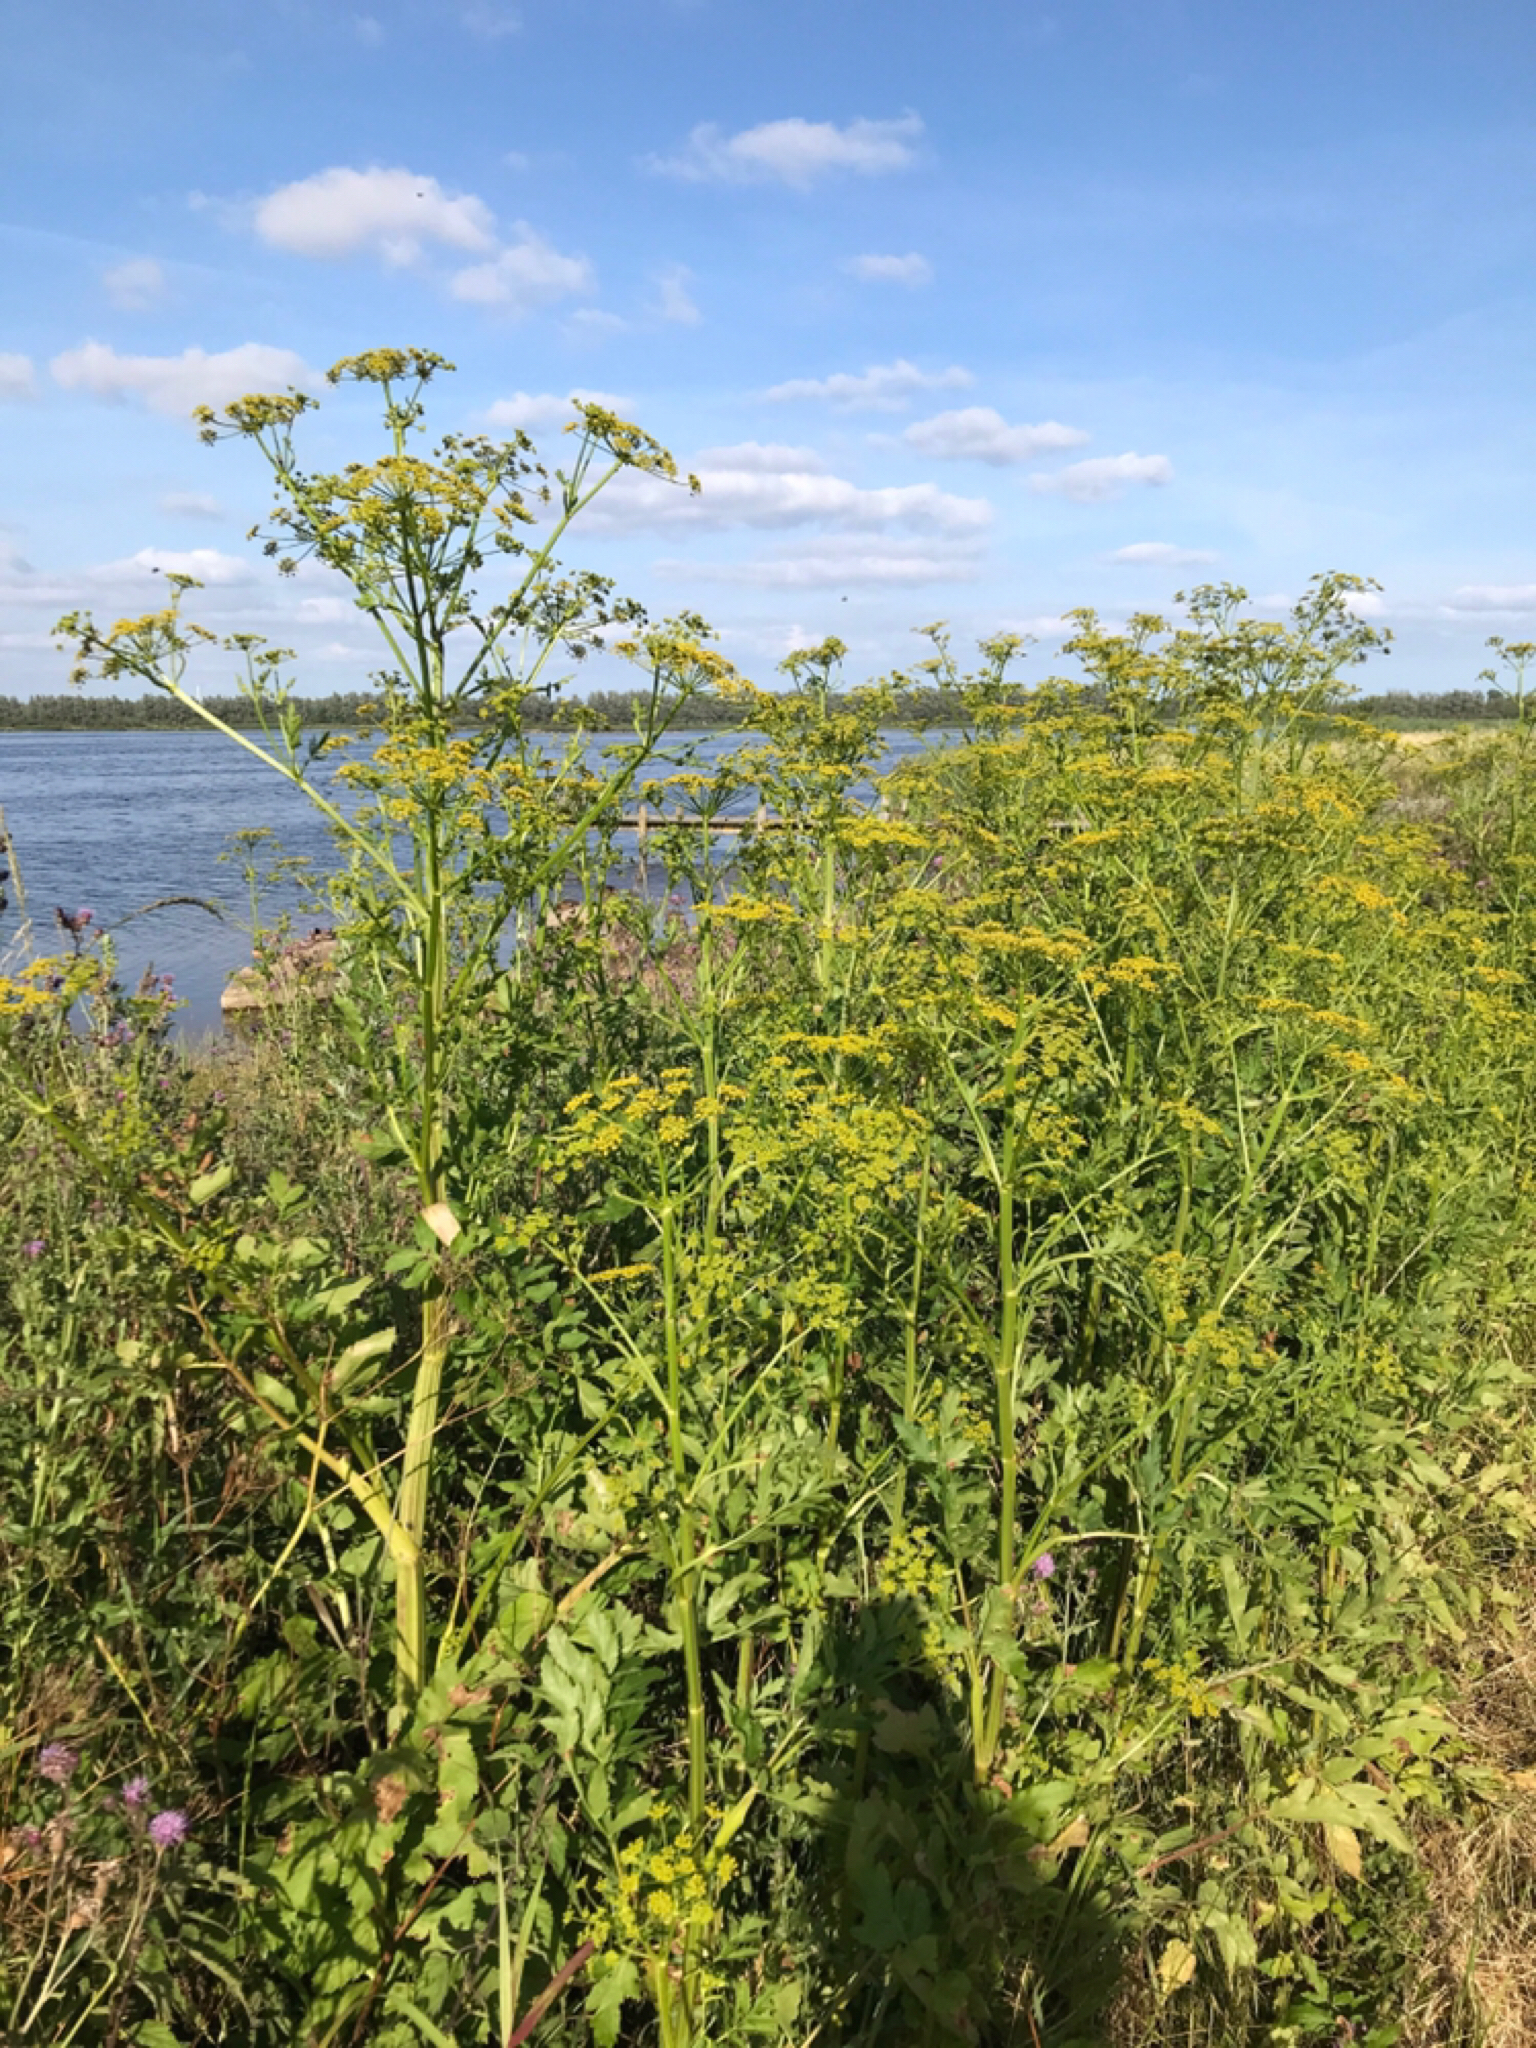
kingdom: Plantae
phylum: Tracheophyta
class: Magnoliopsida
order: Apiales
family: Apiaceae
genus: Pastinaca
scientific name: Pastinaca sativa
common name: Wild parsnip
